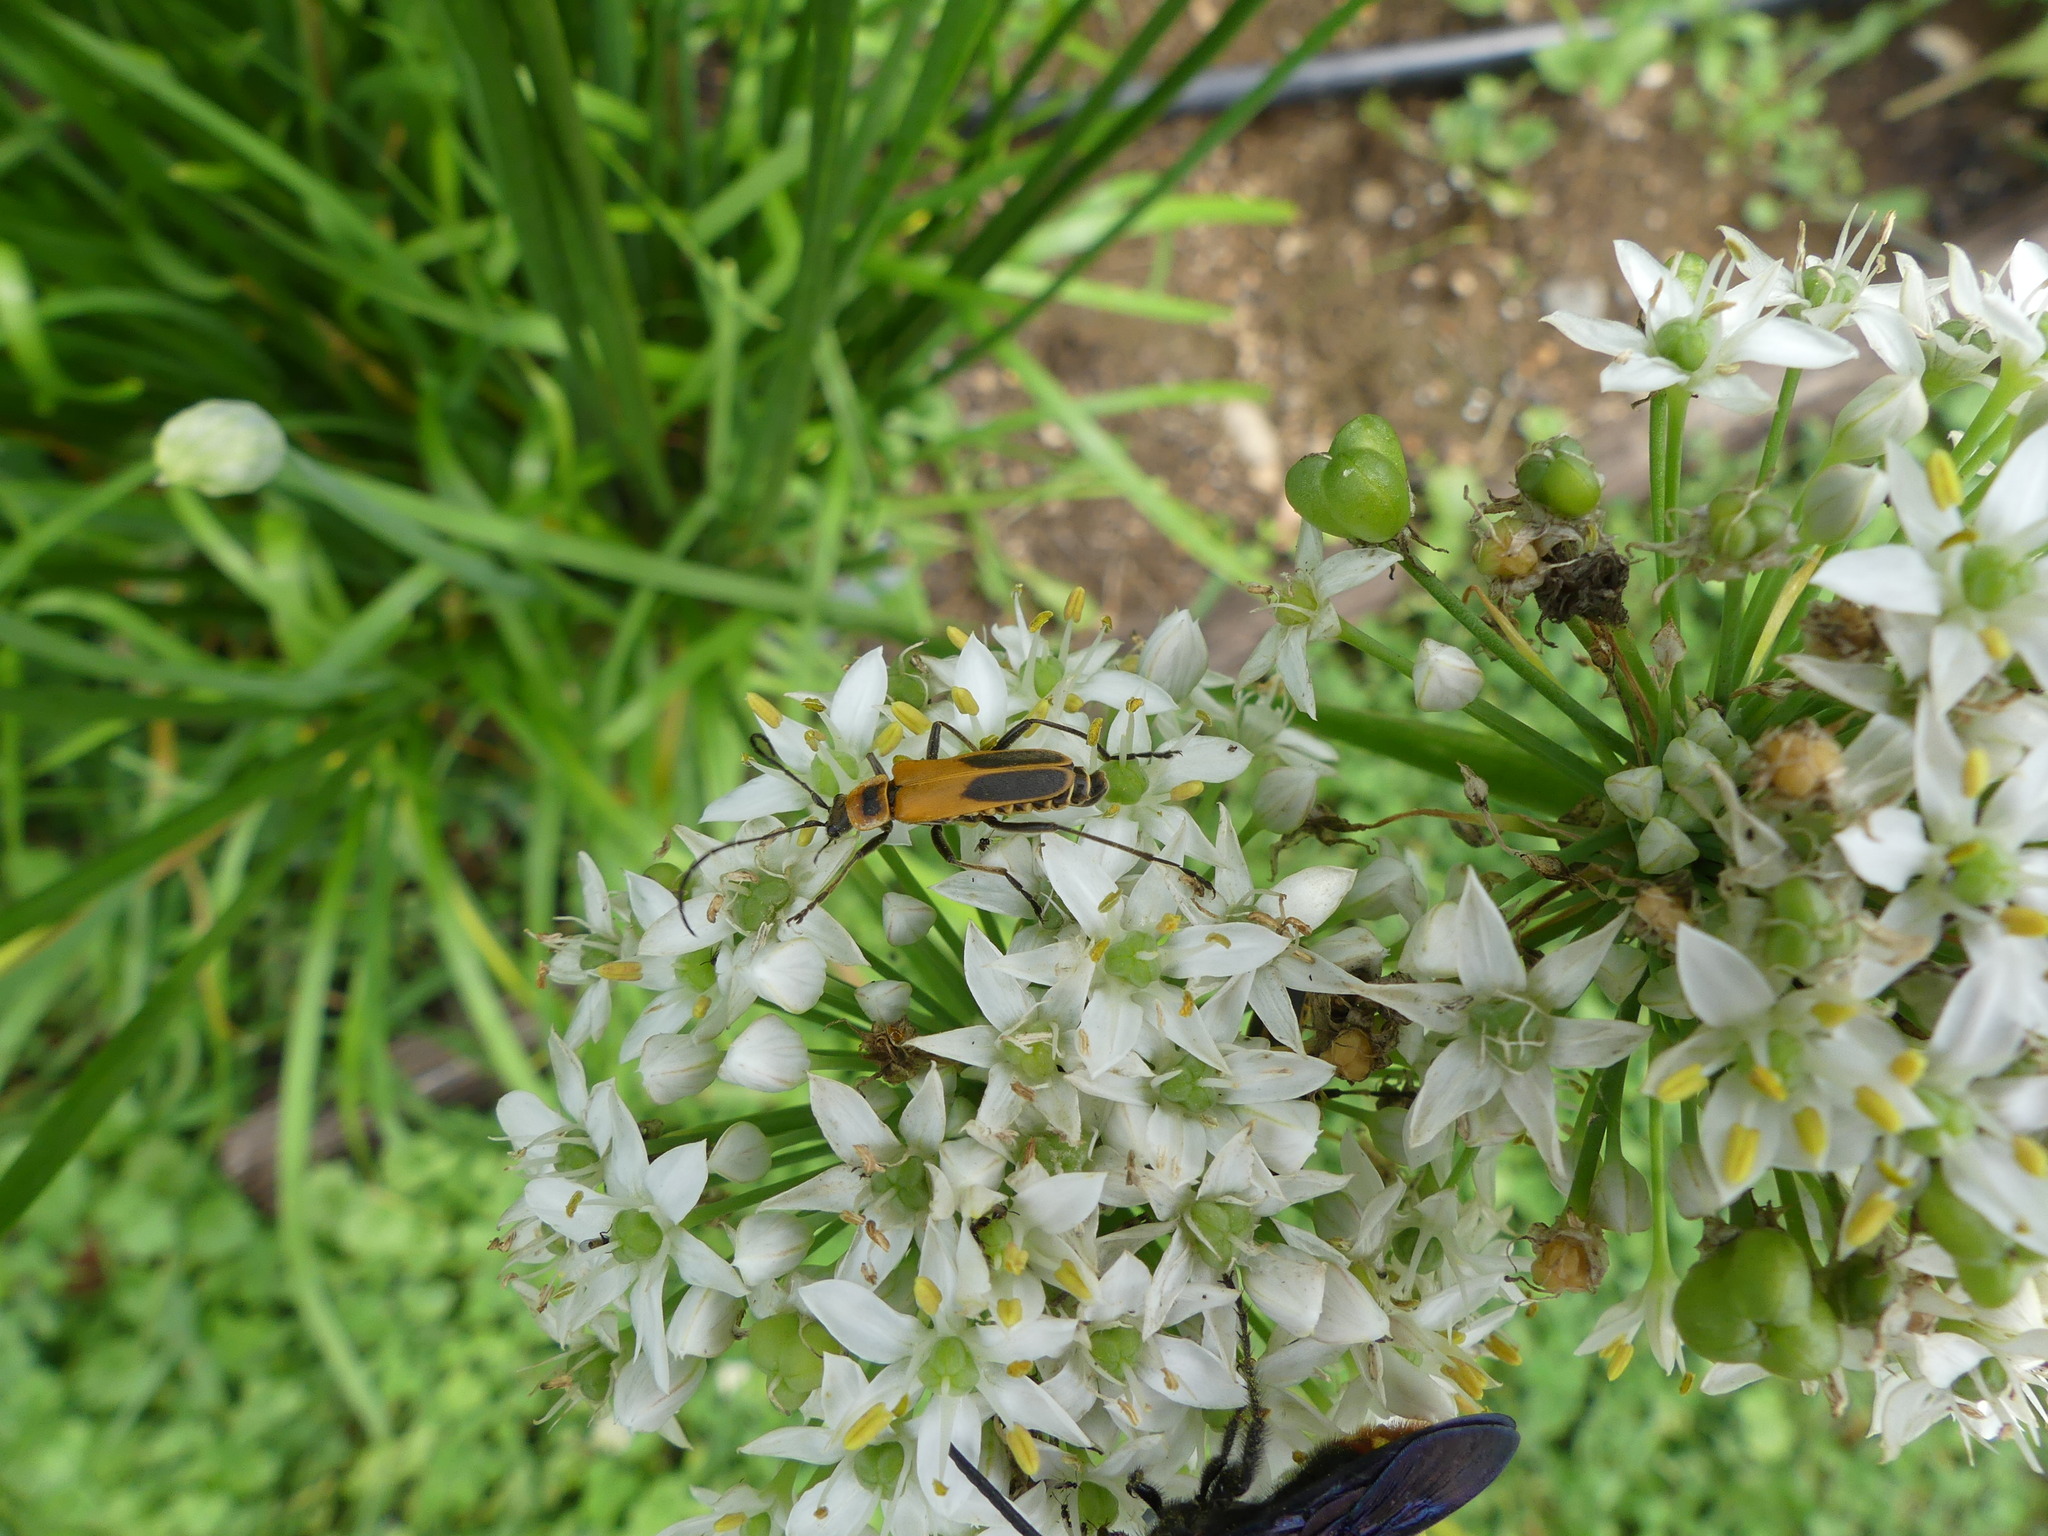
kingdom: Animalia
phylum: Arthropoda
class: Insecta
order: Coleoptera
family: Cantharidae
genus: Chauliognathus
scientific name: Chauliognathus pensylvanicus
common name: Goldenrod soldier beetle
